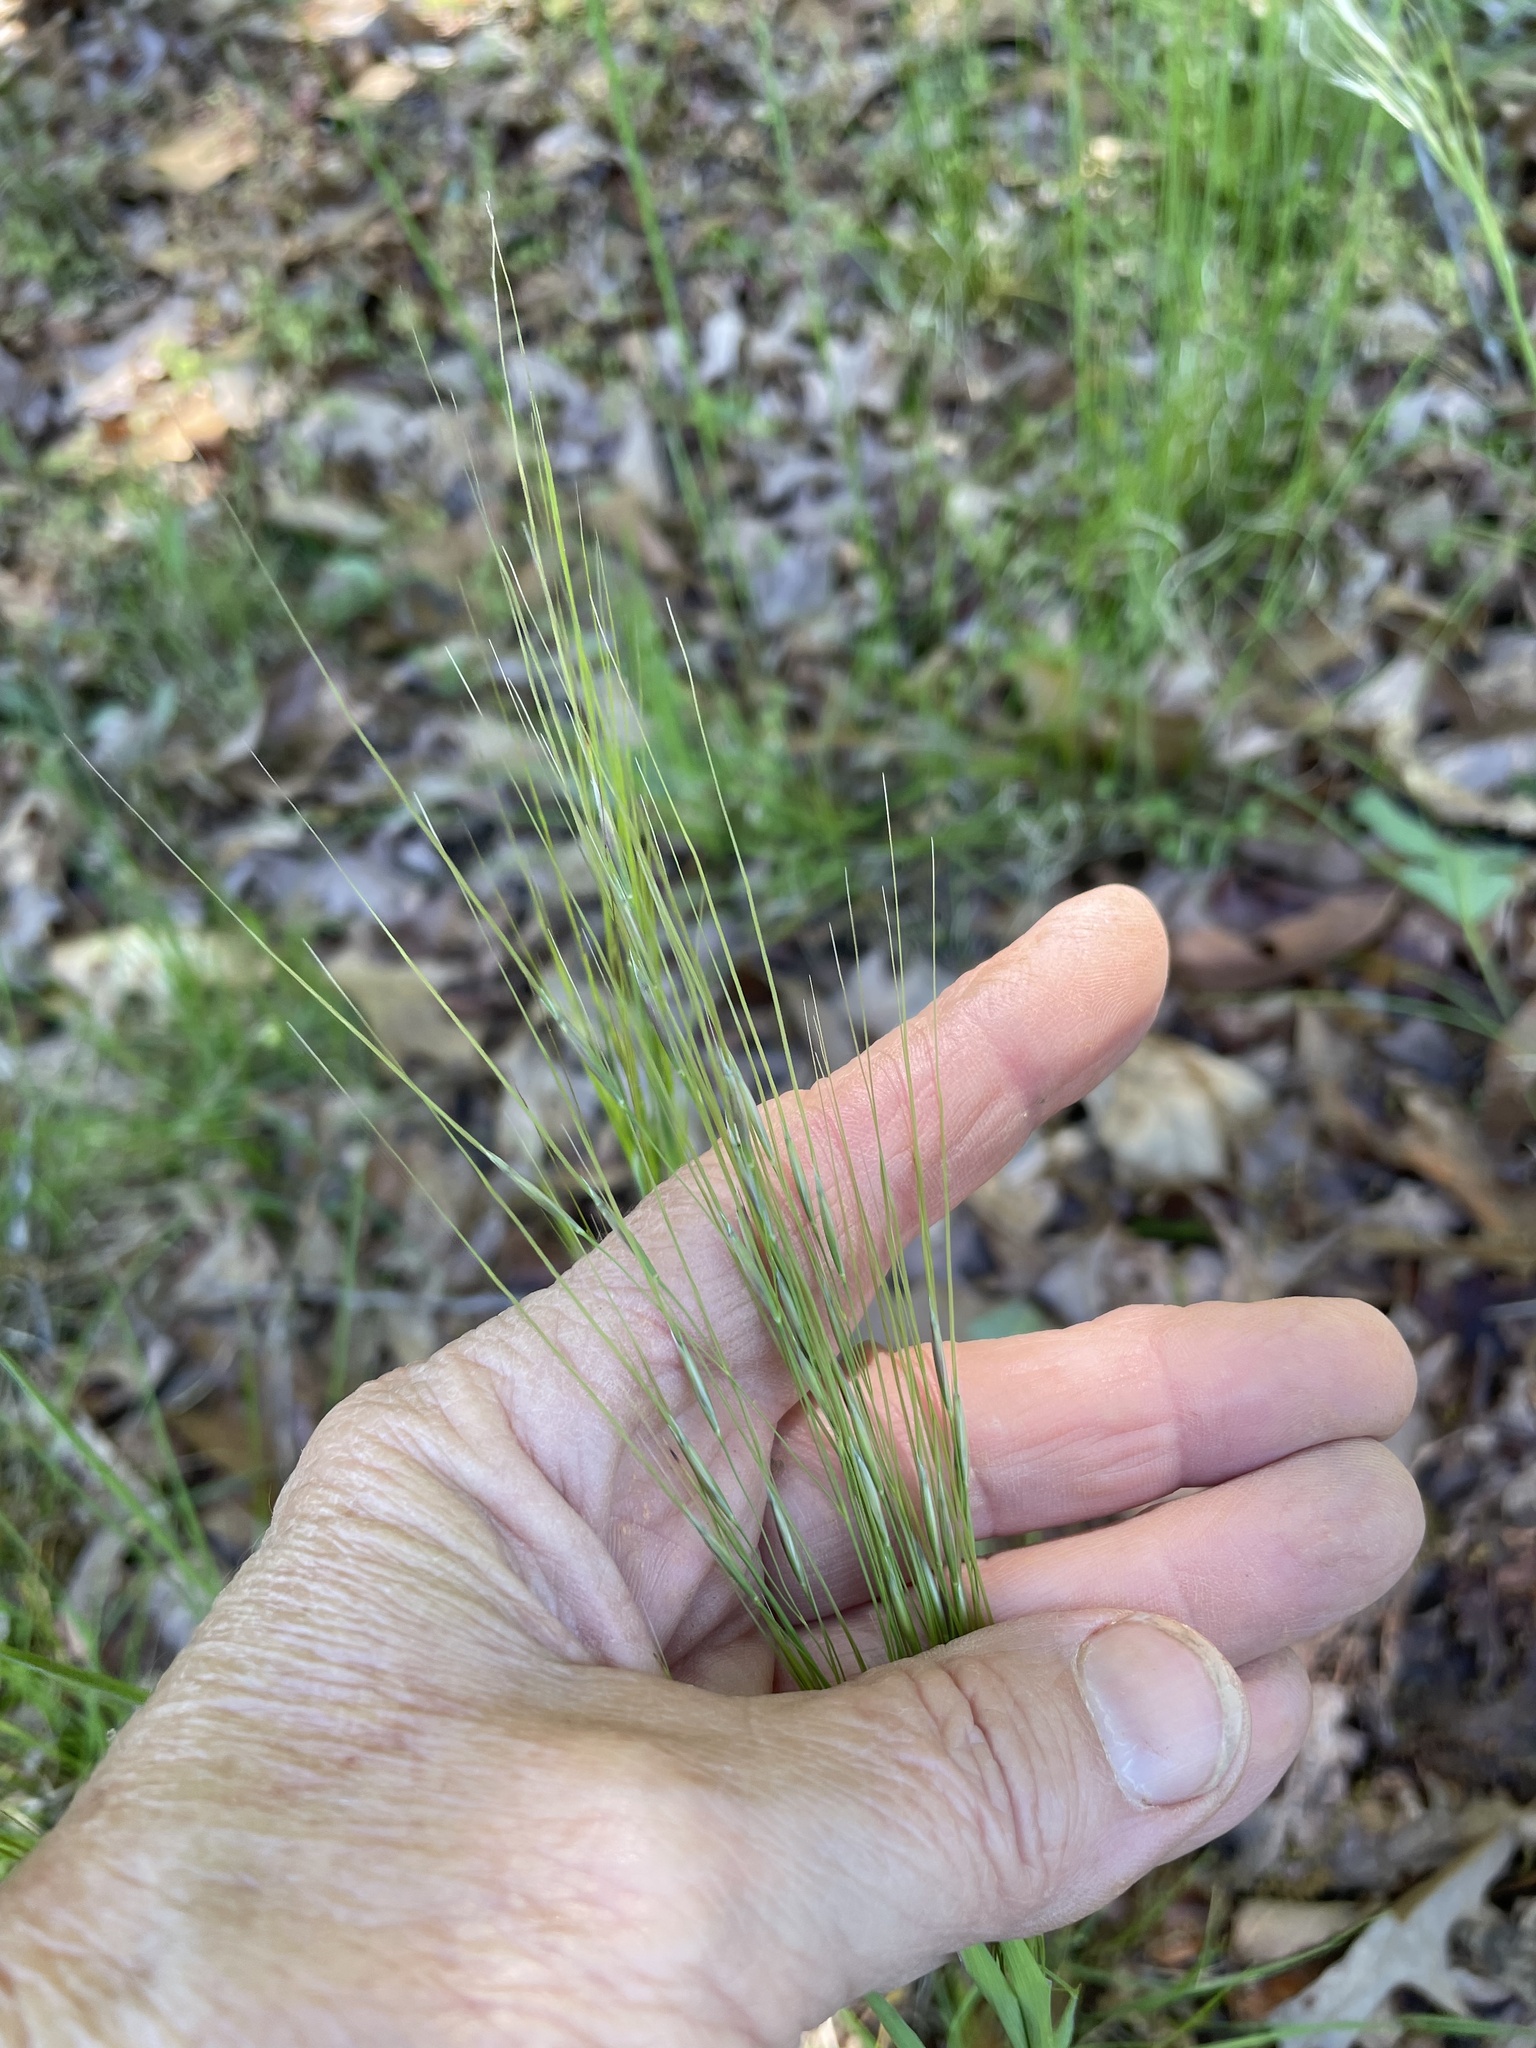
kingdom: Plantae
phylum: Tracheophyta
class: Liliopsida
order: Poales
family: Poaceae
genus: Piptochaetium
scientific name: Piptochaetium avenaceum
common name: Black bunchgrass
